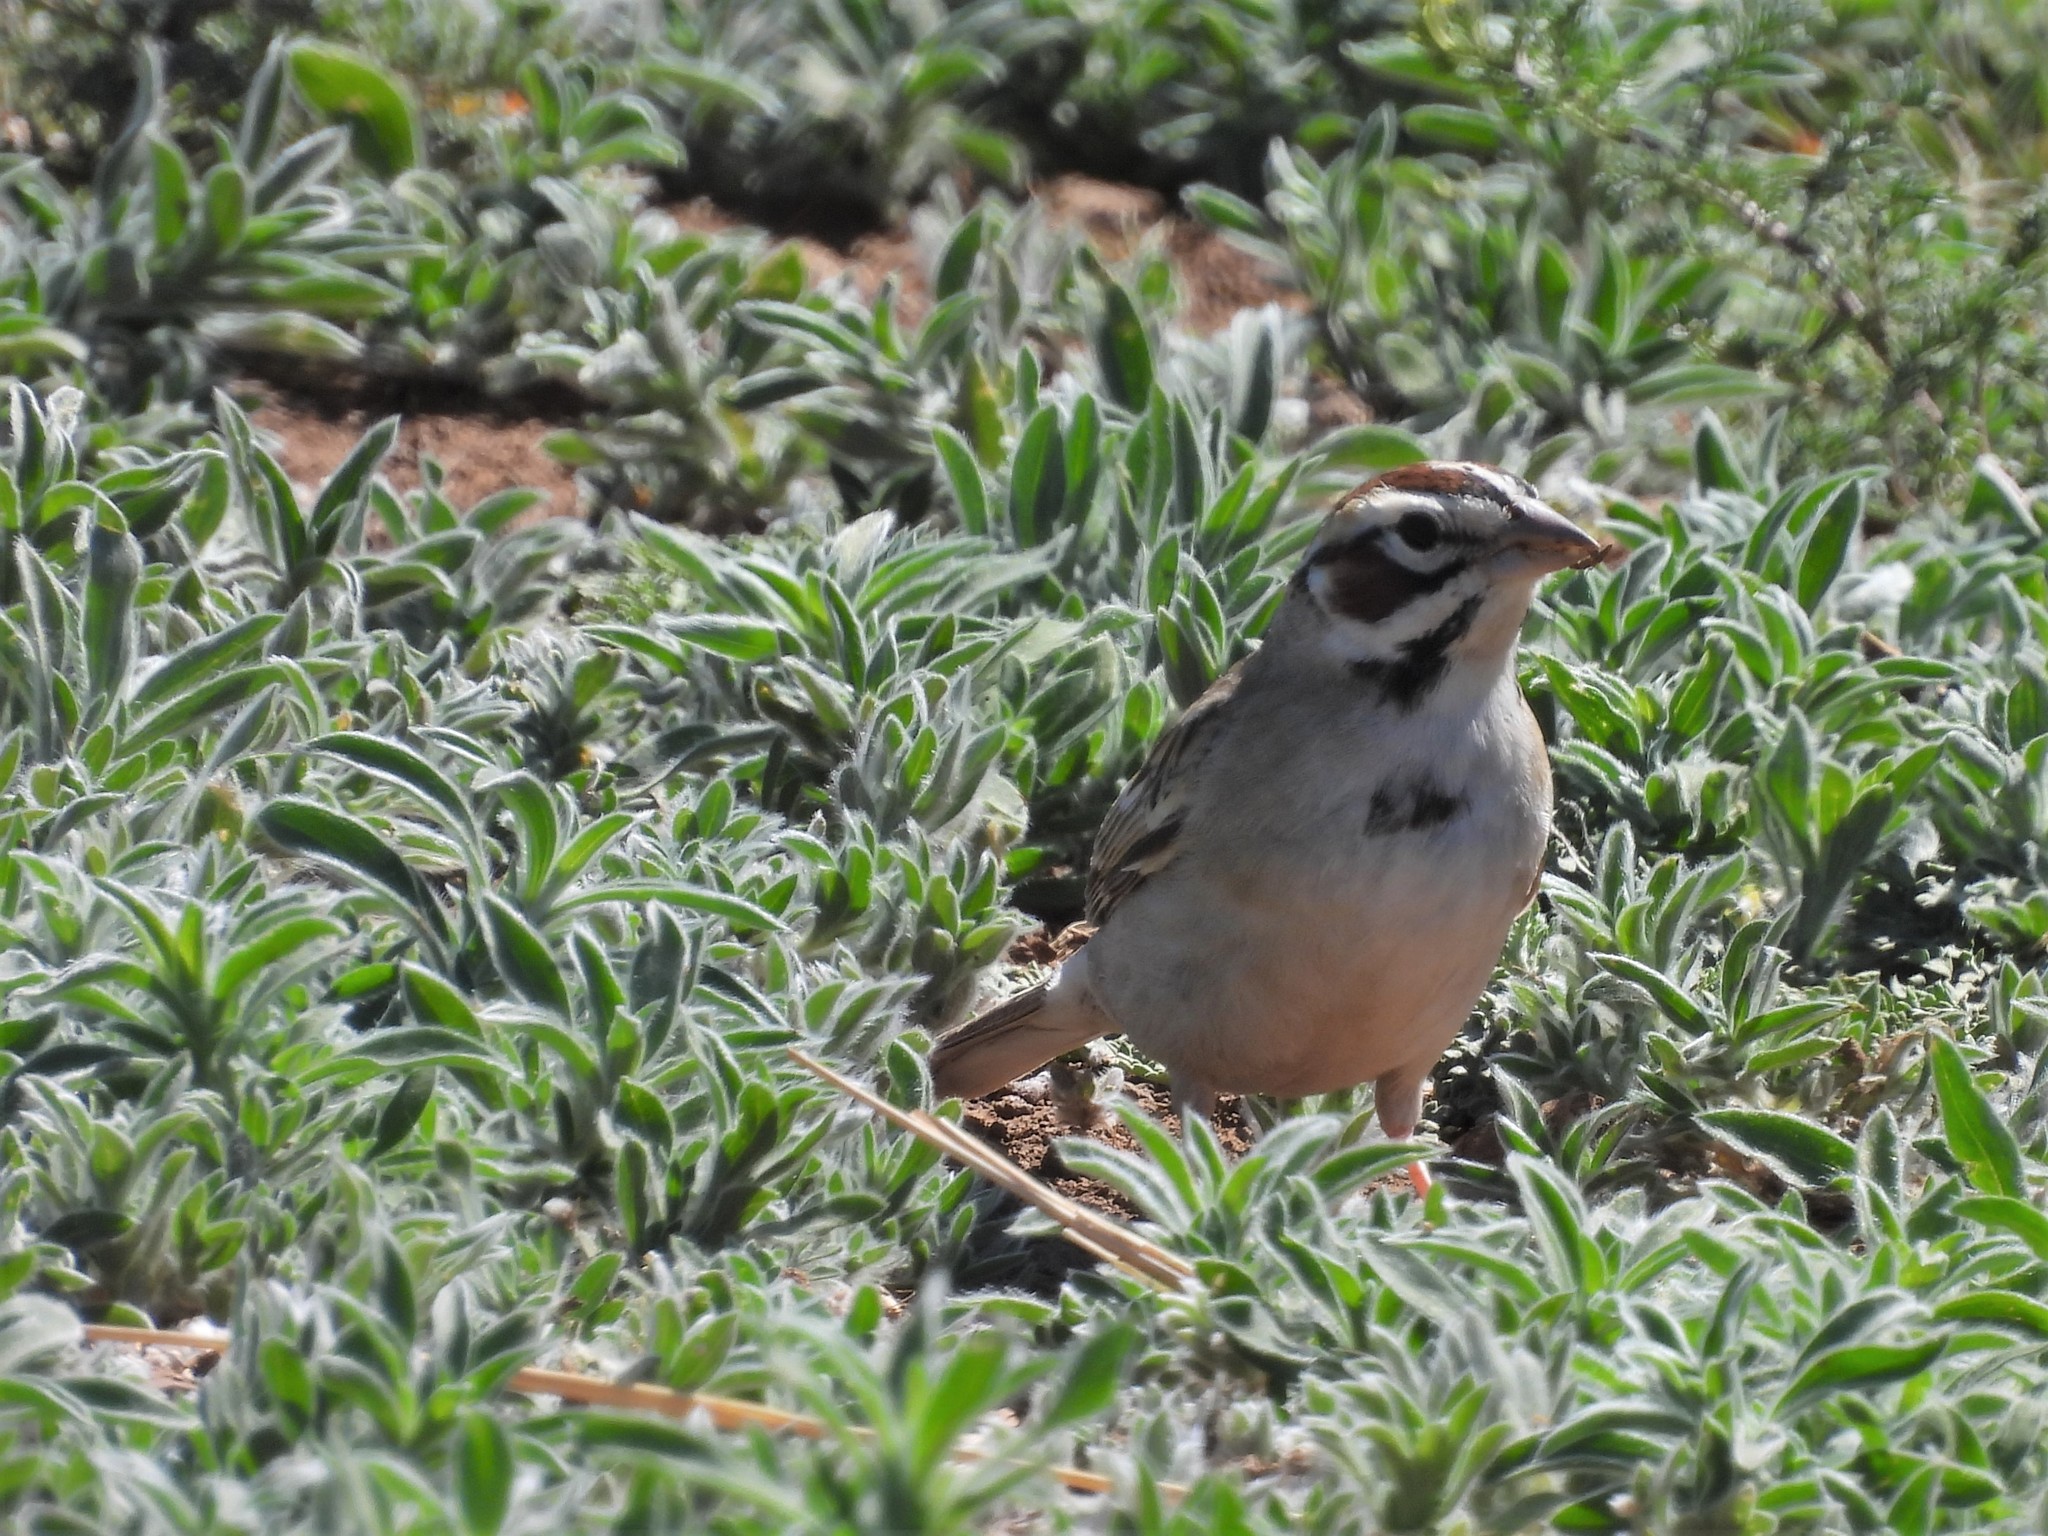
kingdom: Animalia
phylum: Chordata
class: Aves
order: Passeriformes
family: Passerellidae
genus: Chondestes
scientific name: Chondestes grammacus
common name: Lark sparrow
